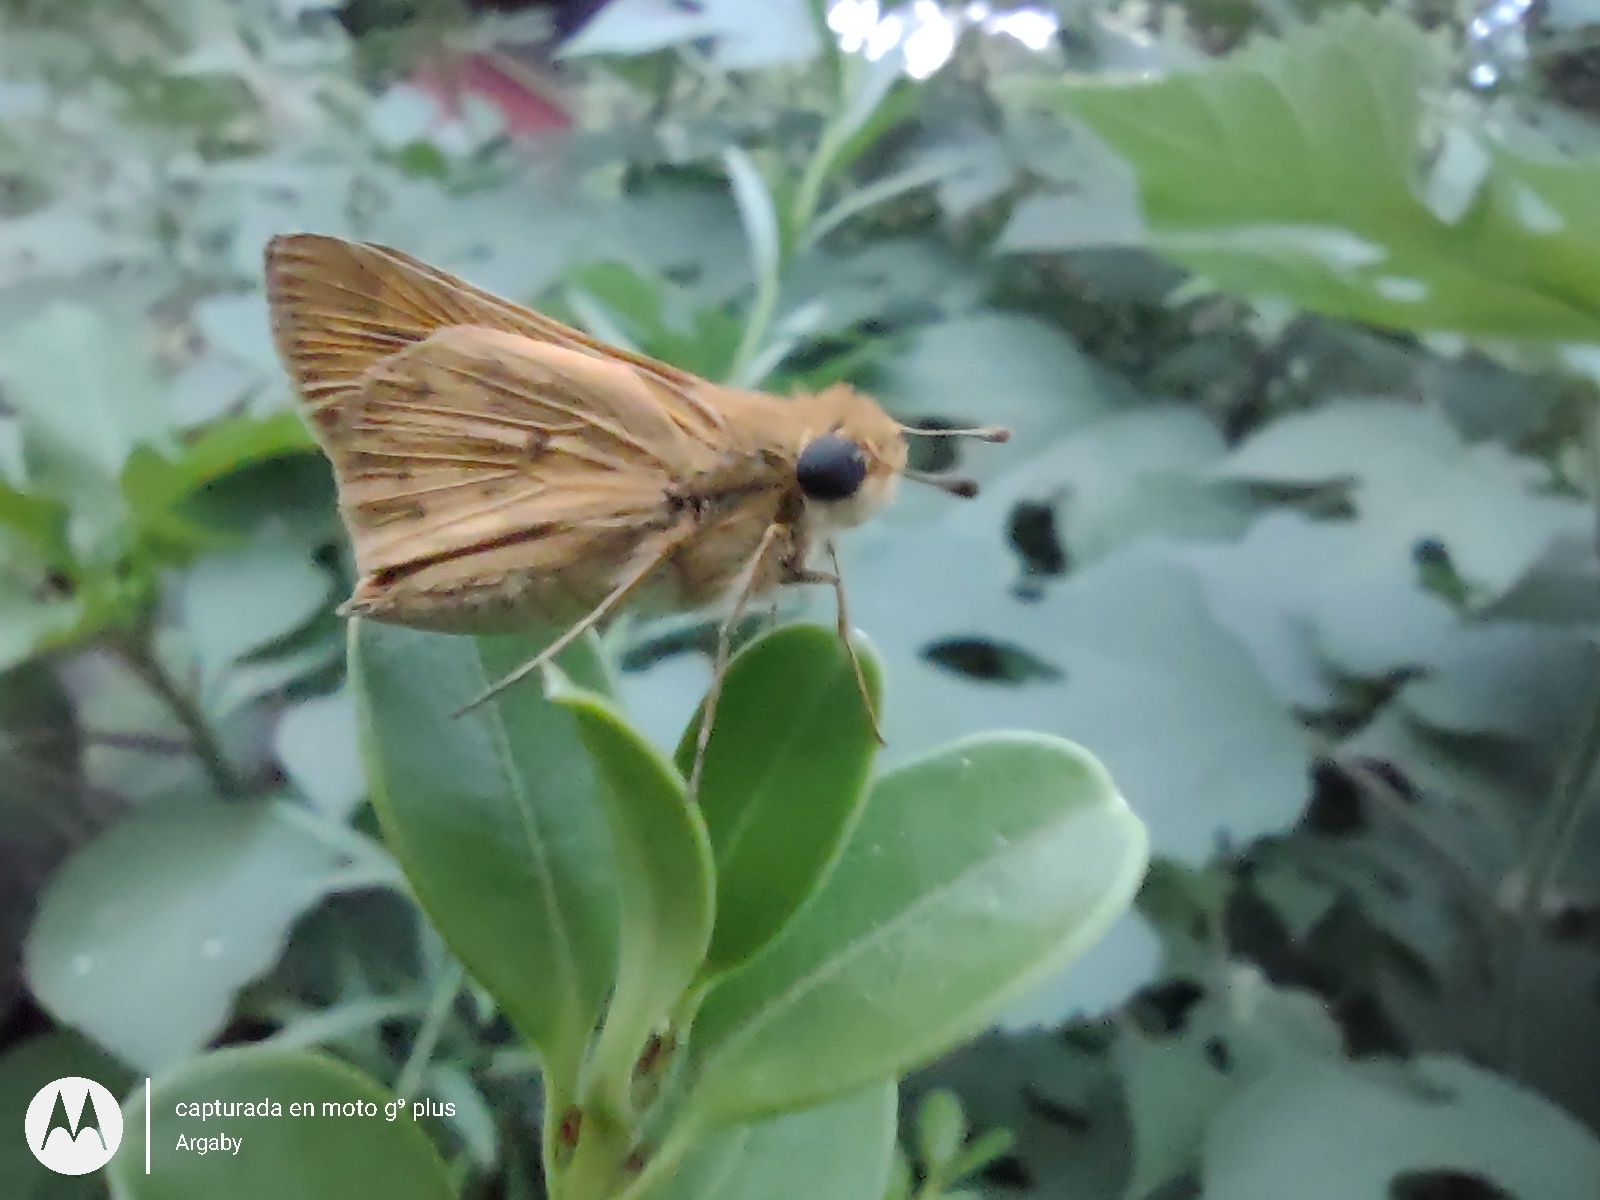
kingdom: Animalia
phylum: Arthropoda
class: Insecta
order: Lepidoptera
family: Hesperiidae
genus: Hylephila
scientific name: Hylephila phyleus
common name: Fiery skipper
